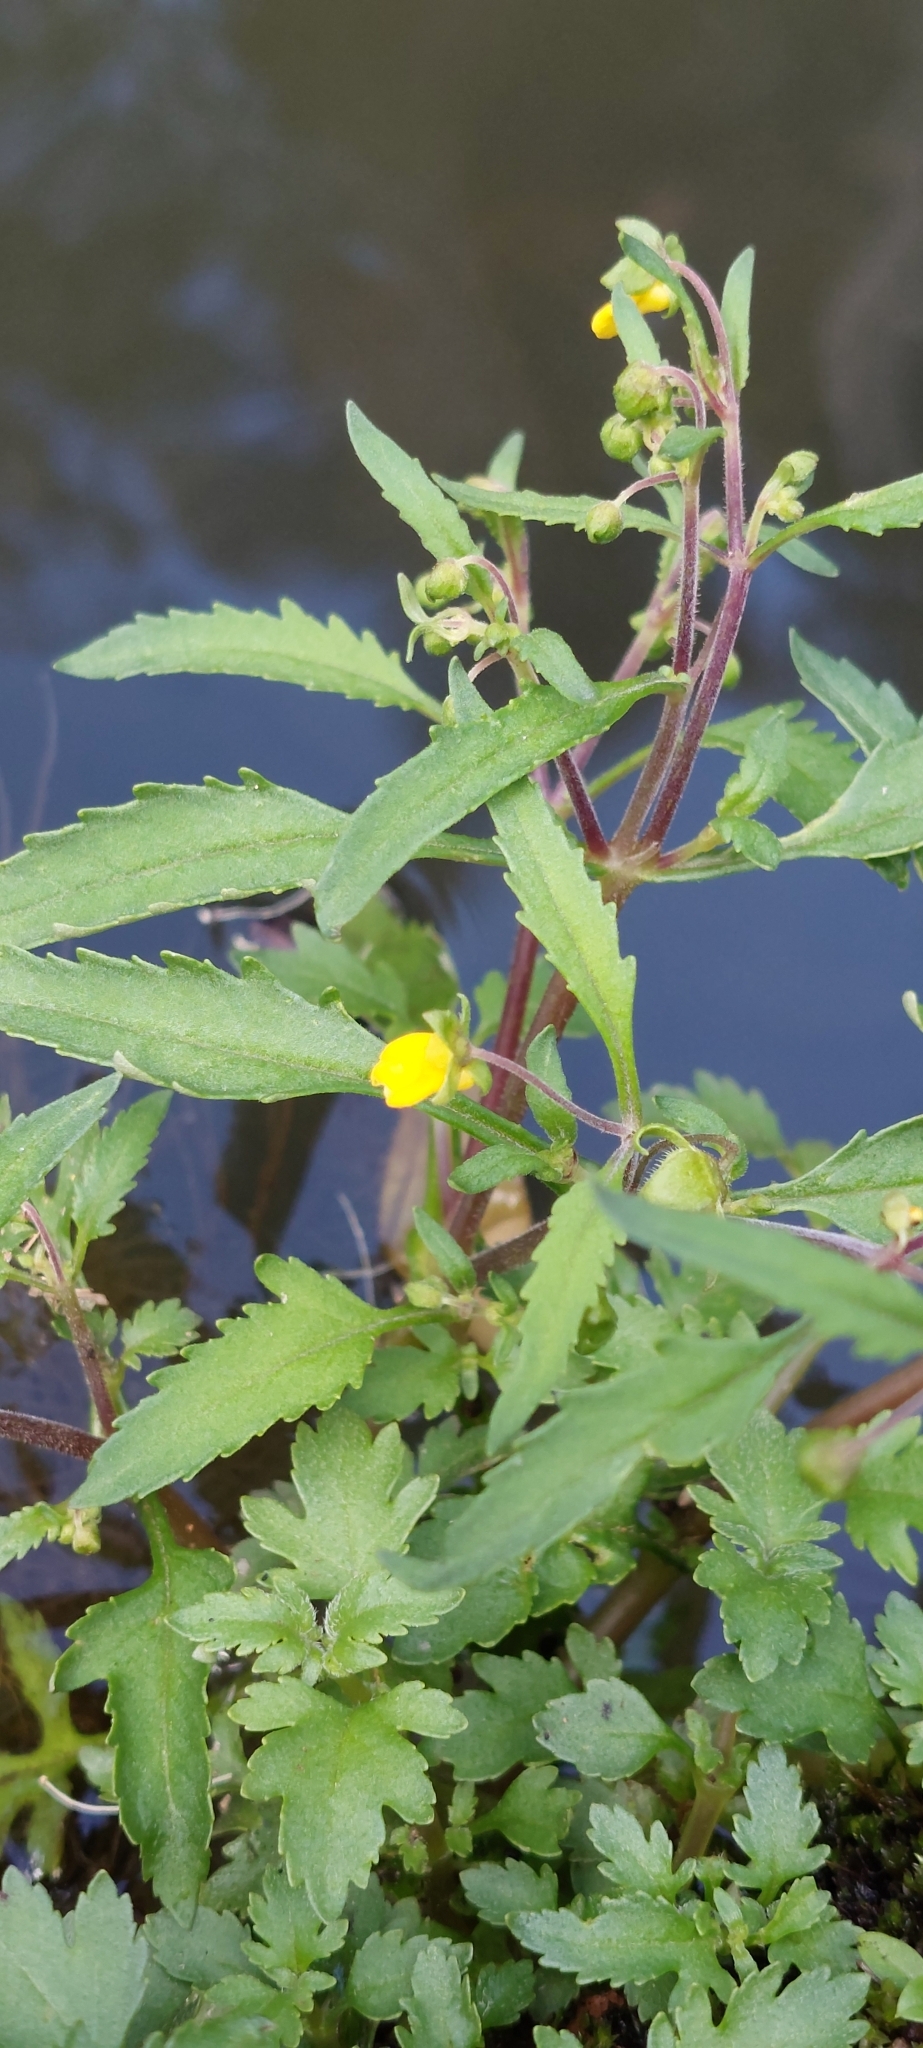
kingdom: Plantae
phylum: Tracheophyta
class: Magnoliopsida
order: Lamiales
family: Calceolariaceae
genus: Calceolaria
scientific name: Calceolaria mexicana
